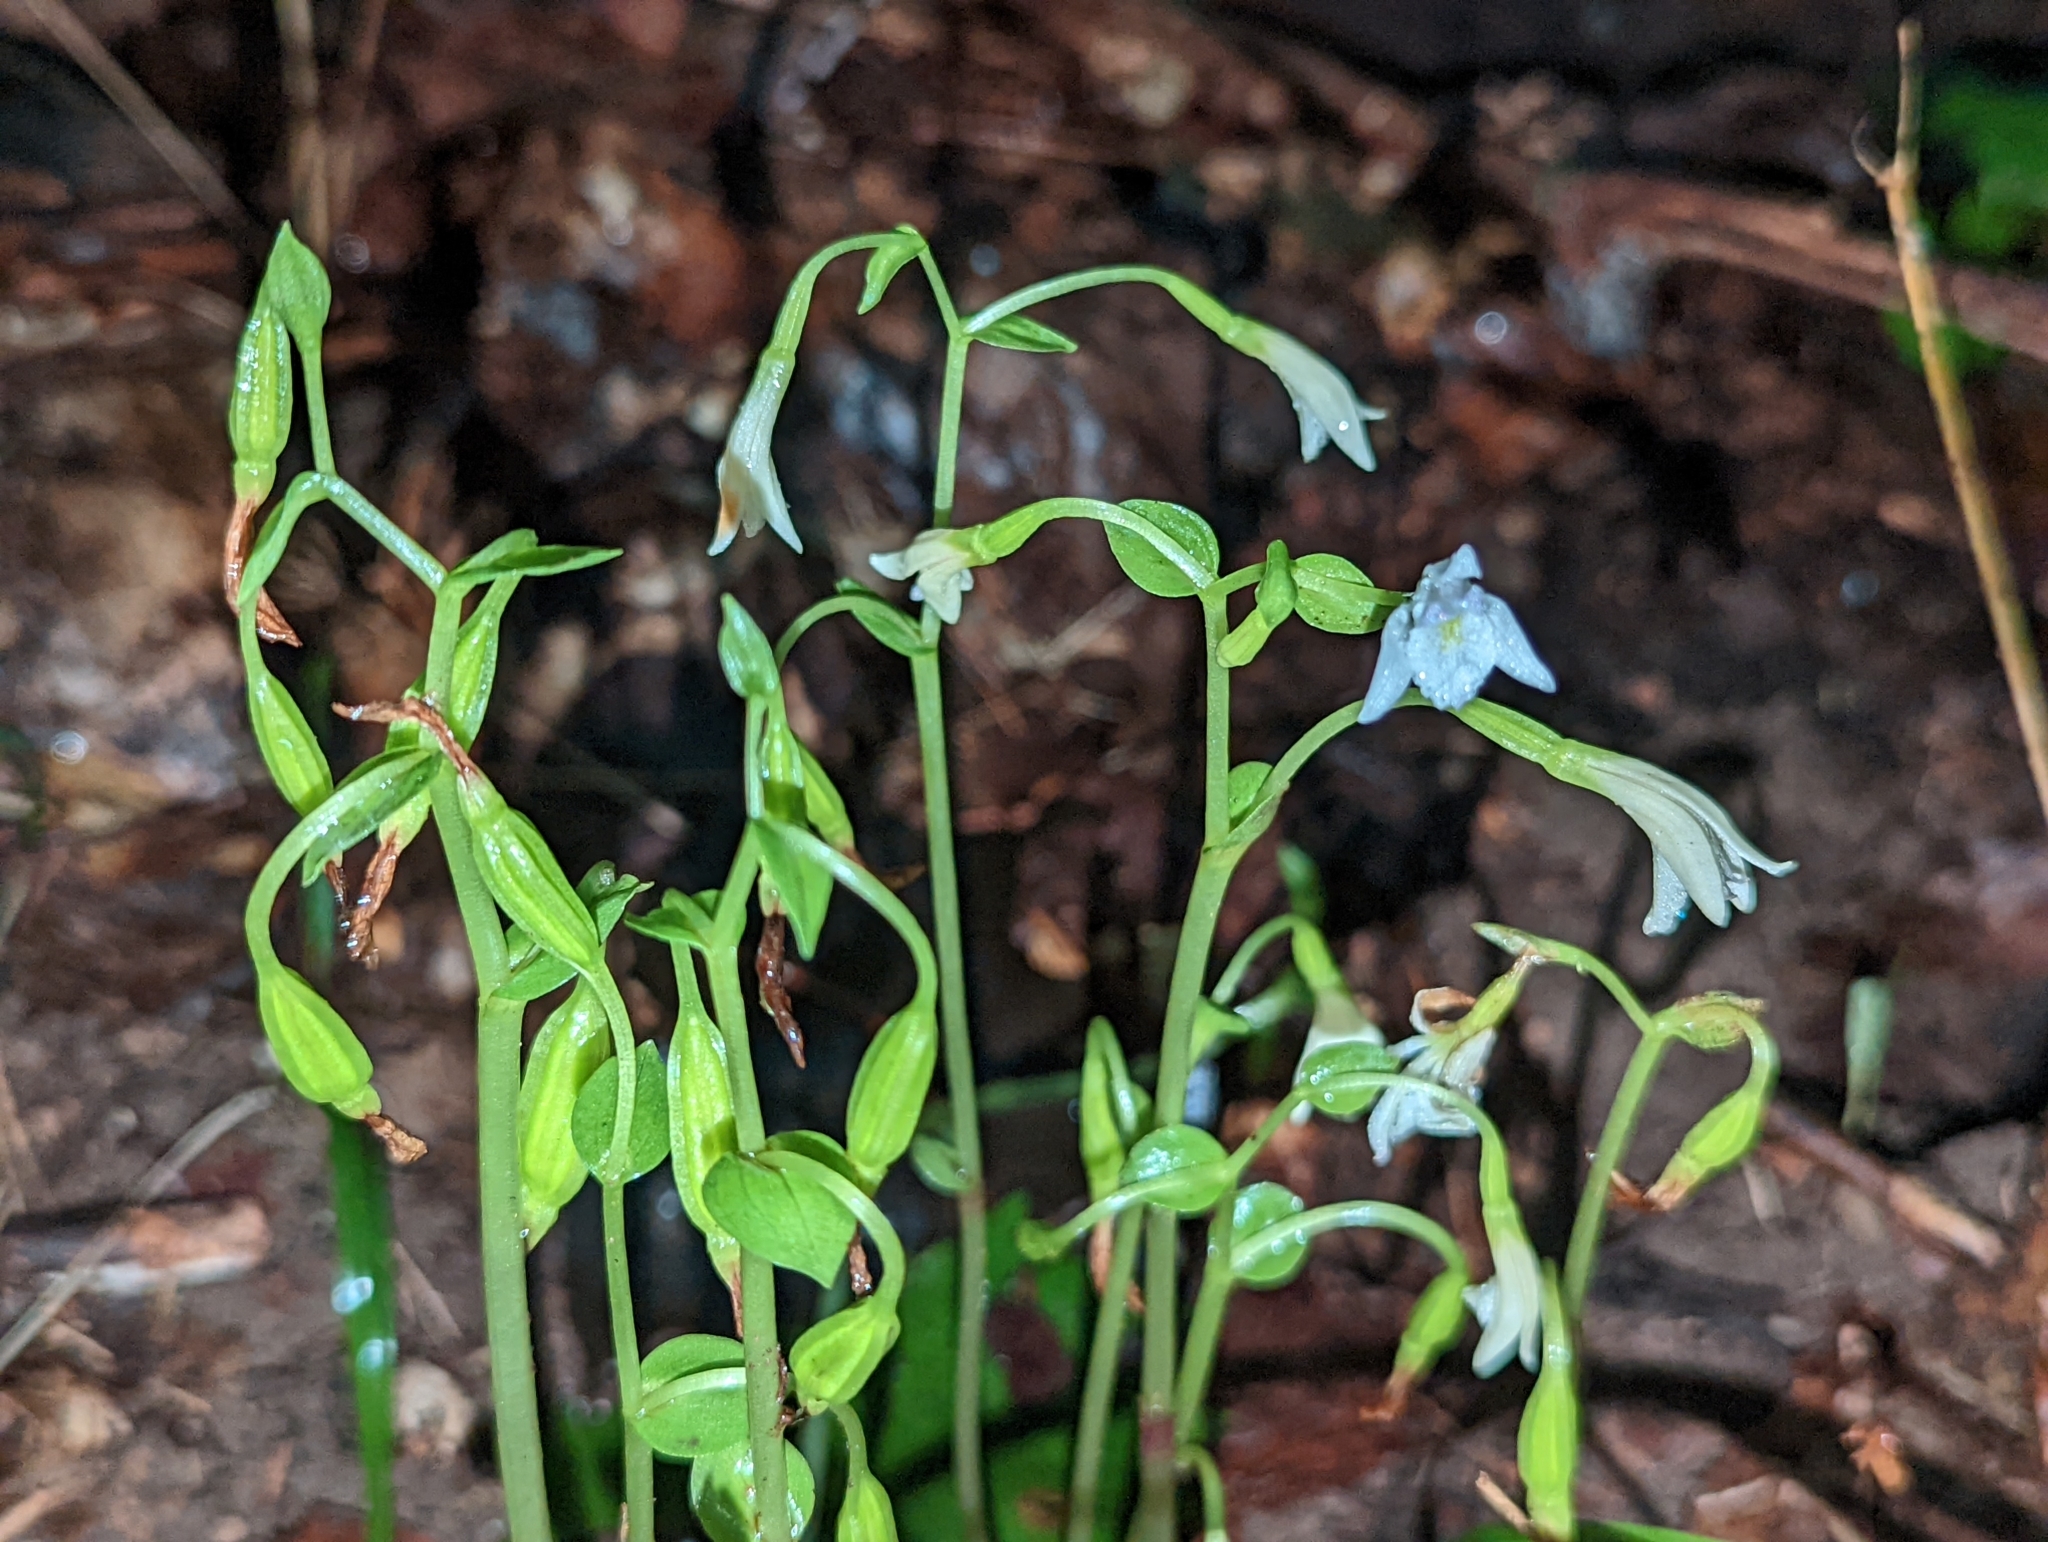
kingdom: Plantae
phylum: Tracheophyta
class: Liliopsida
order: Asparagales
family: Orchidaceae
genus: Triphora
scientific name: Triphora trianthophoros
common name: Three birds orchid
